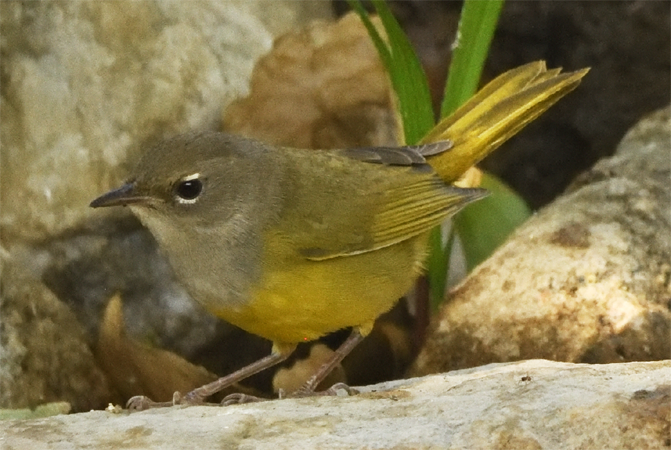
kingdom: Animalia
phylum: Chordata
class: Aves
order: Passeriformes
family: Parulidae
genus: Geothlypis
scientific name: Geothlypis tolmiei
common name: Macgillivray's warbler
